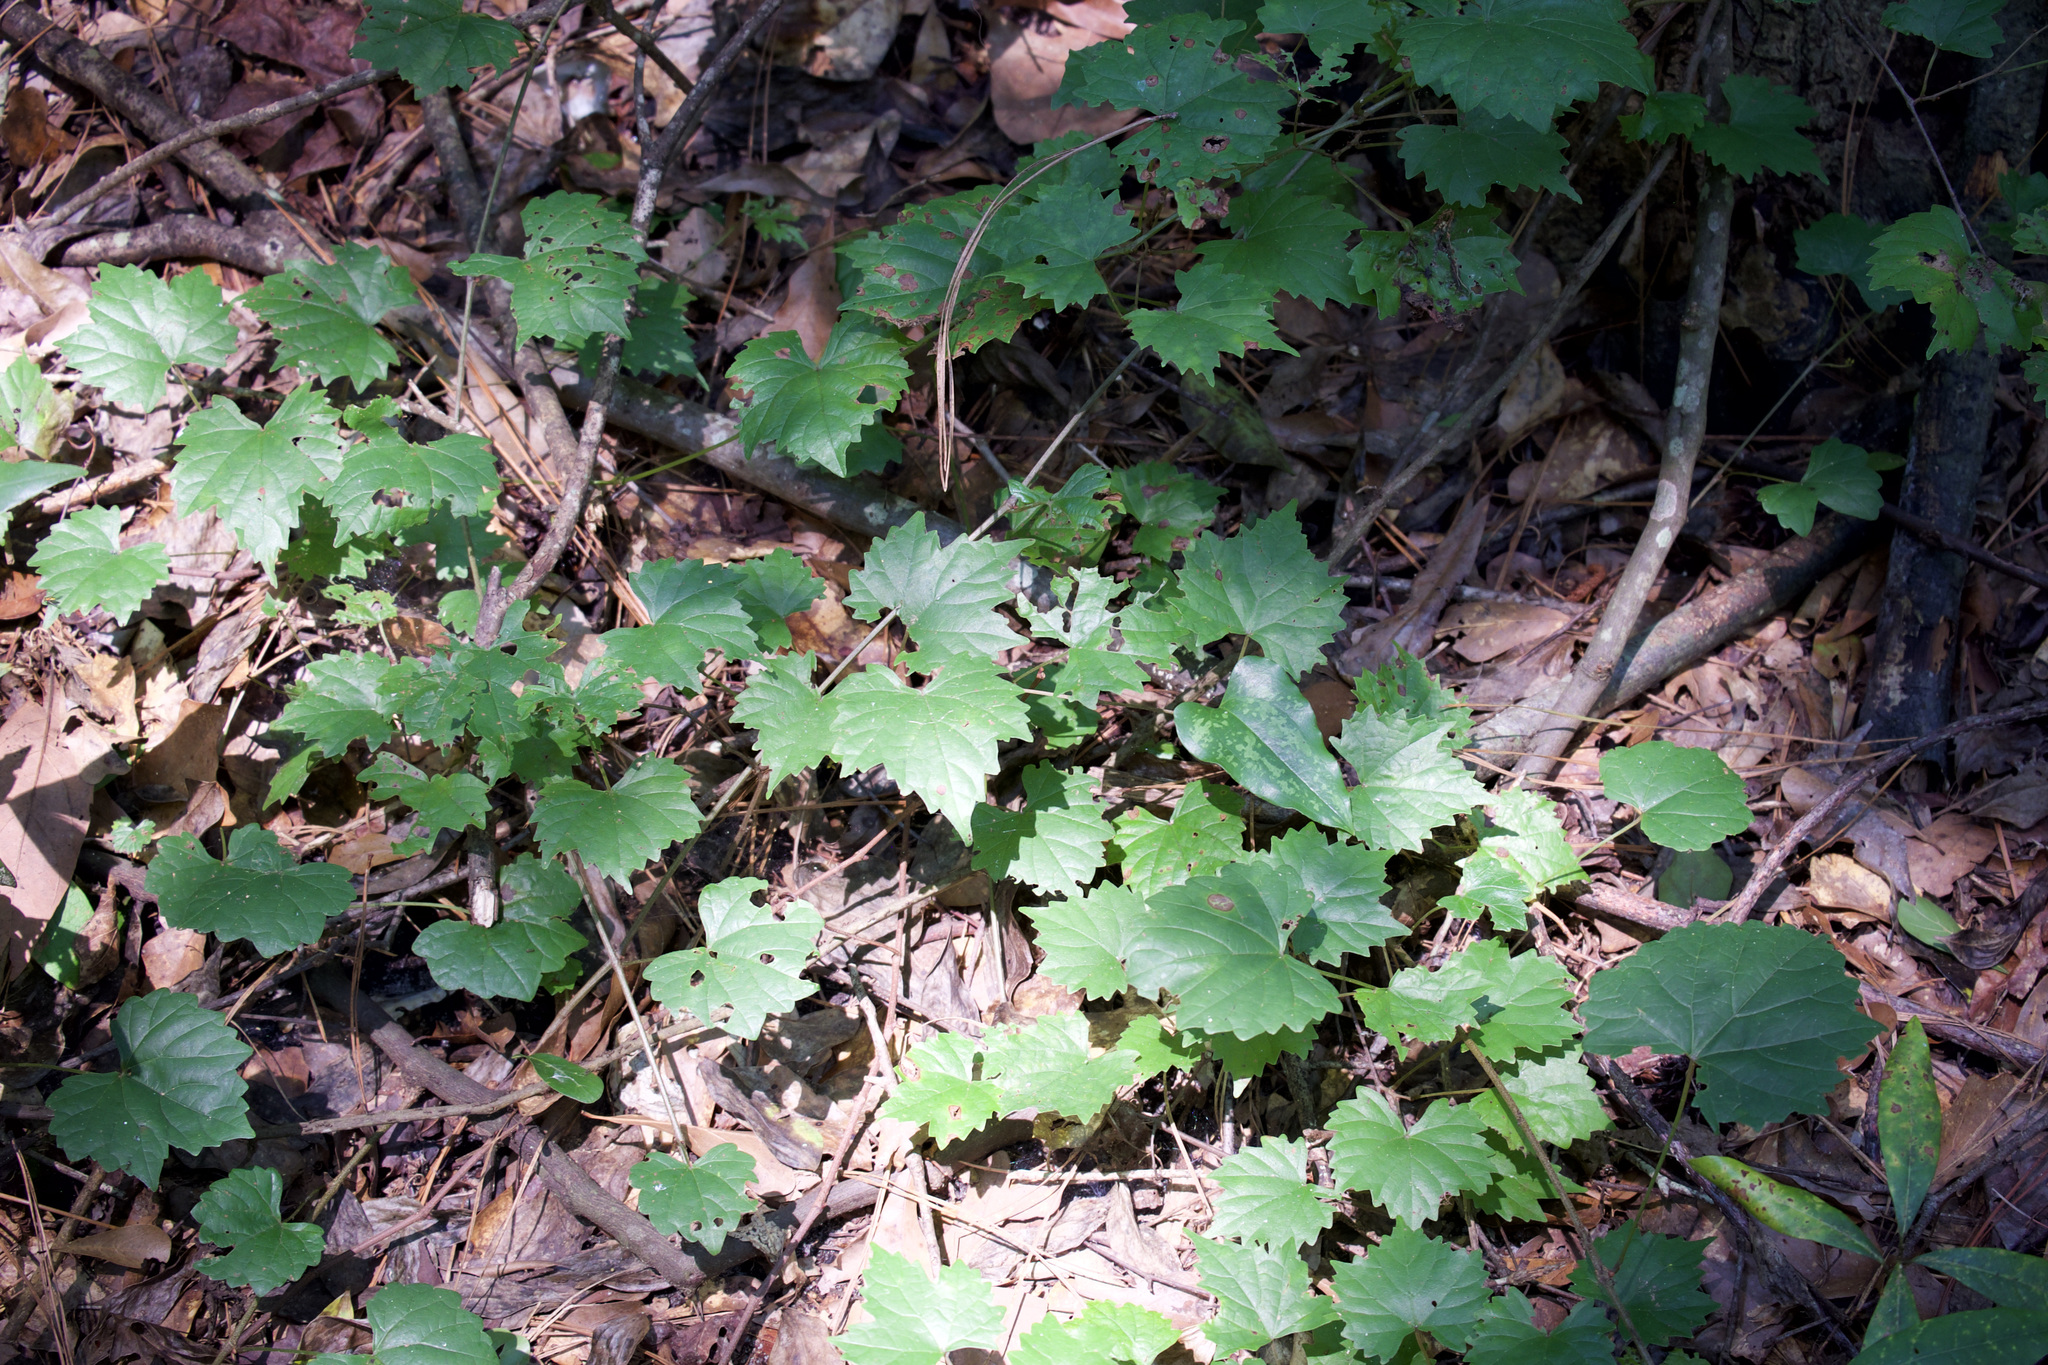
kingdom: Plantae
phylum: Tracheophyta
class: Magnoliopsida
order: Vitales
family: Vitaceae
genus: Vitis
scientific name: Vitis rotundifolia
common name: Muscadine grape
